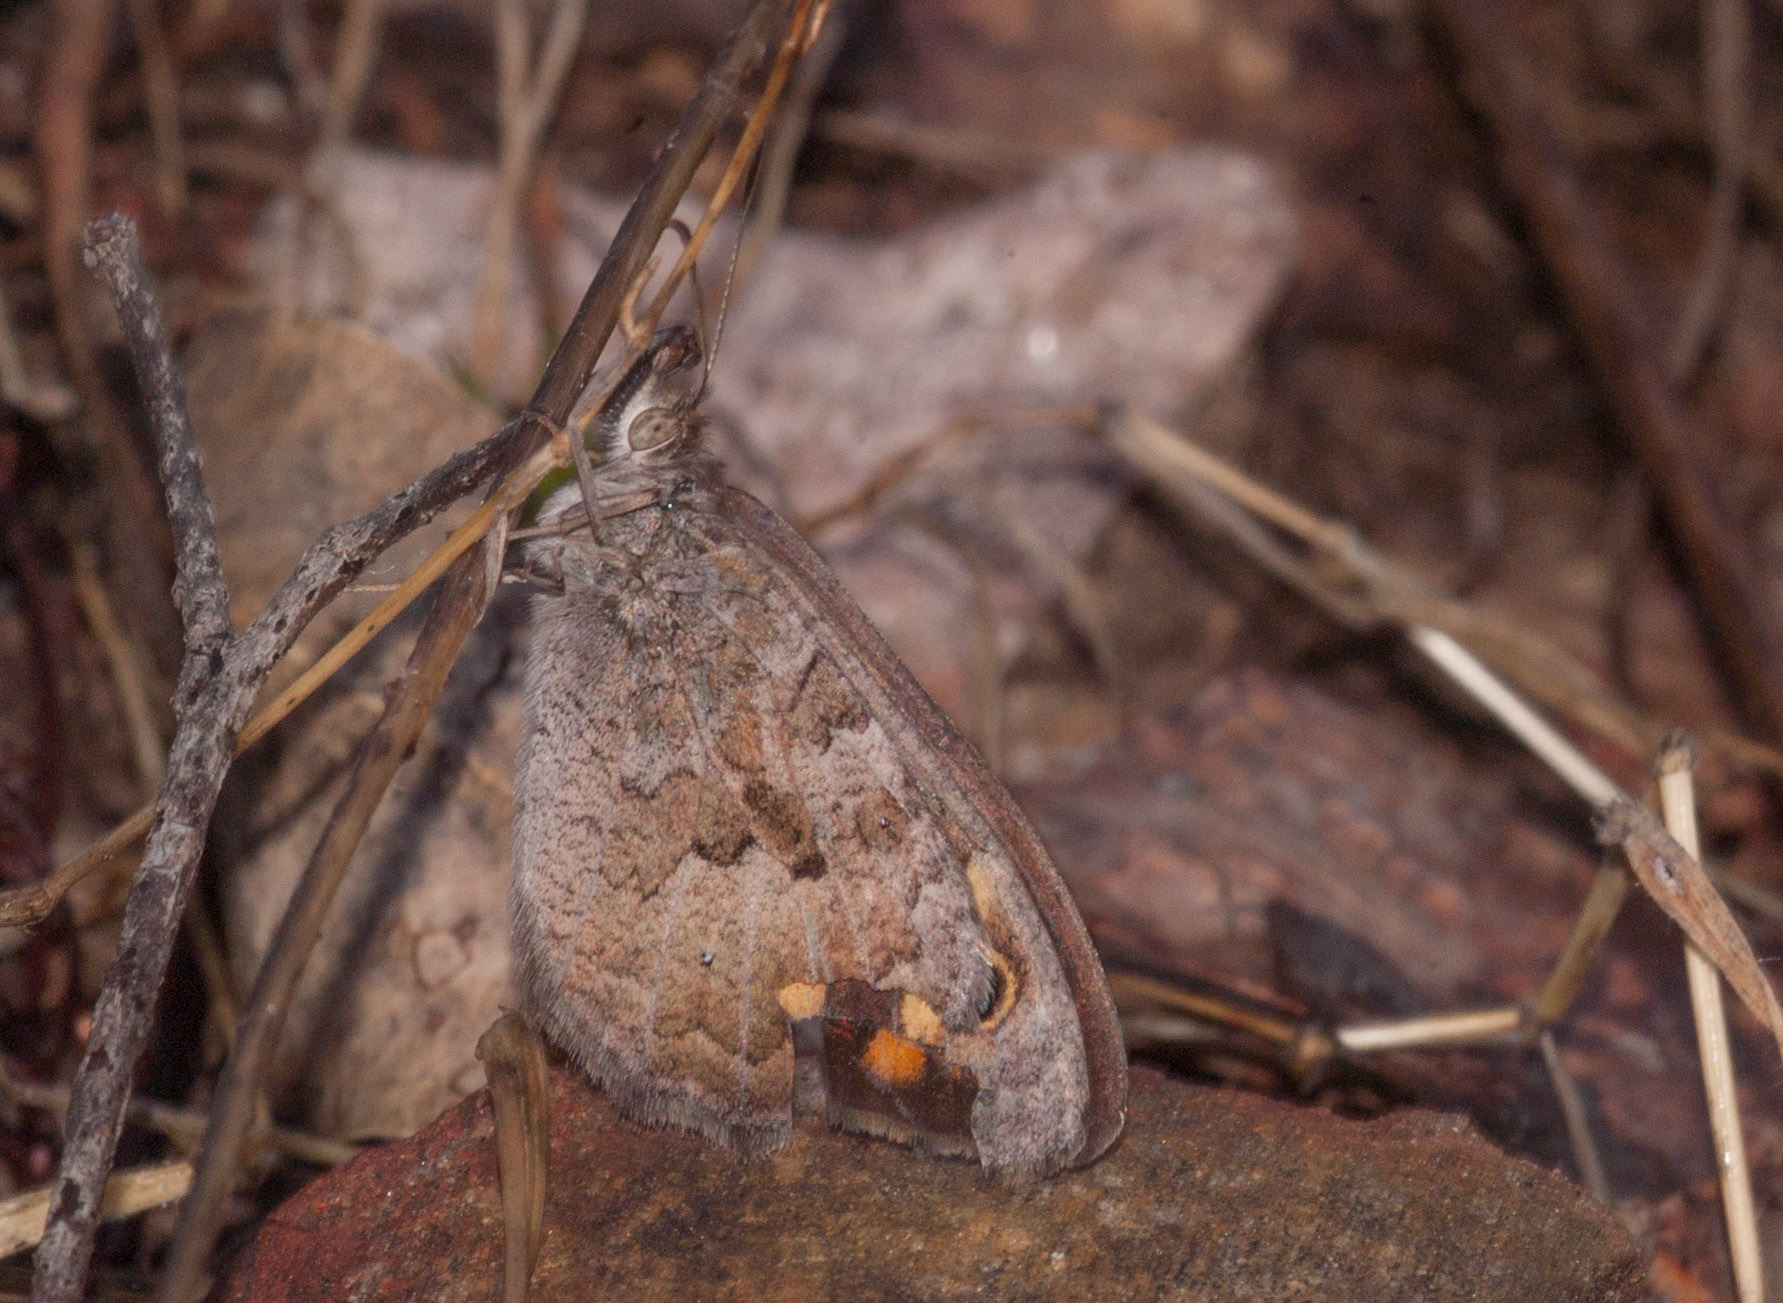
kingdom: Animalia
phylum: Arthropoda
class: Insecta
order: Lepidoptera
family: Nymphalidae
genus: Geitoneura
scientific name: Geitoneura klugii
